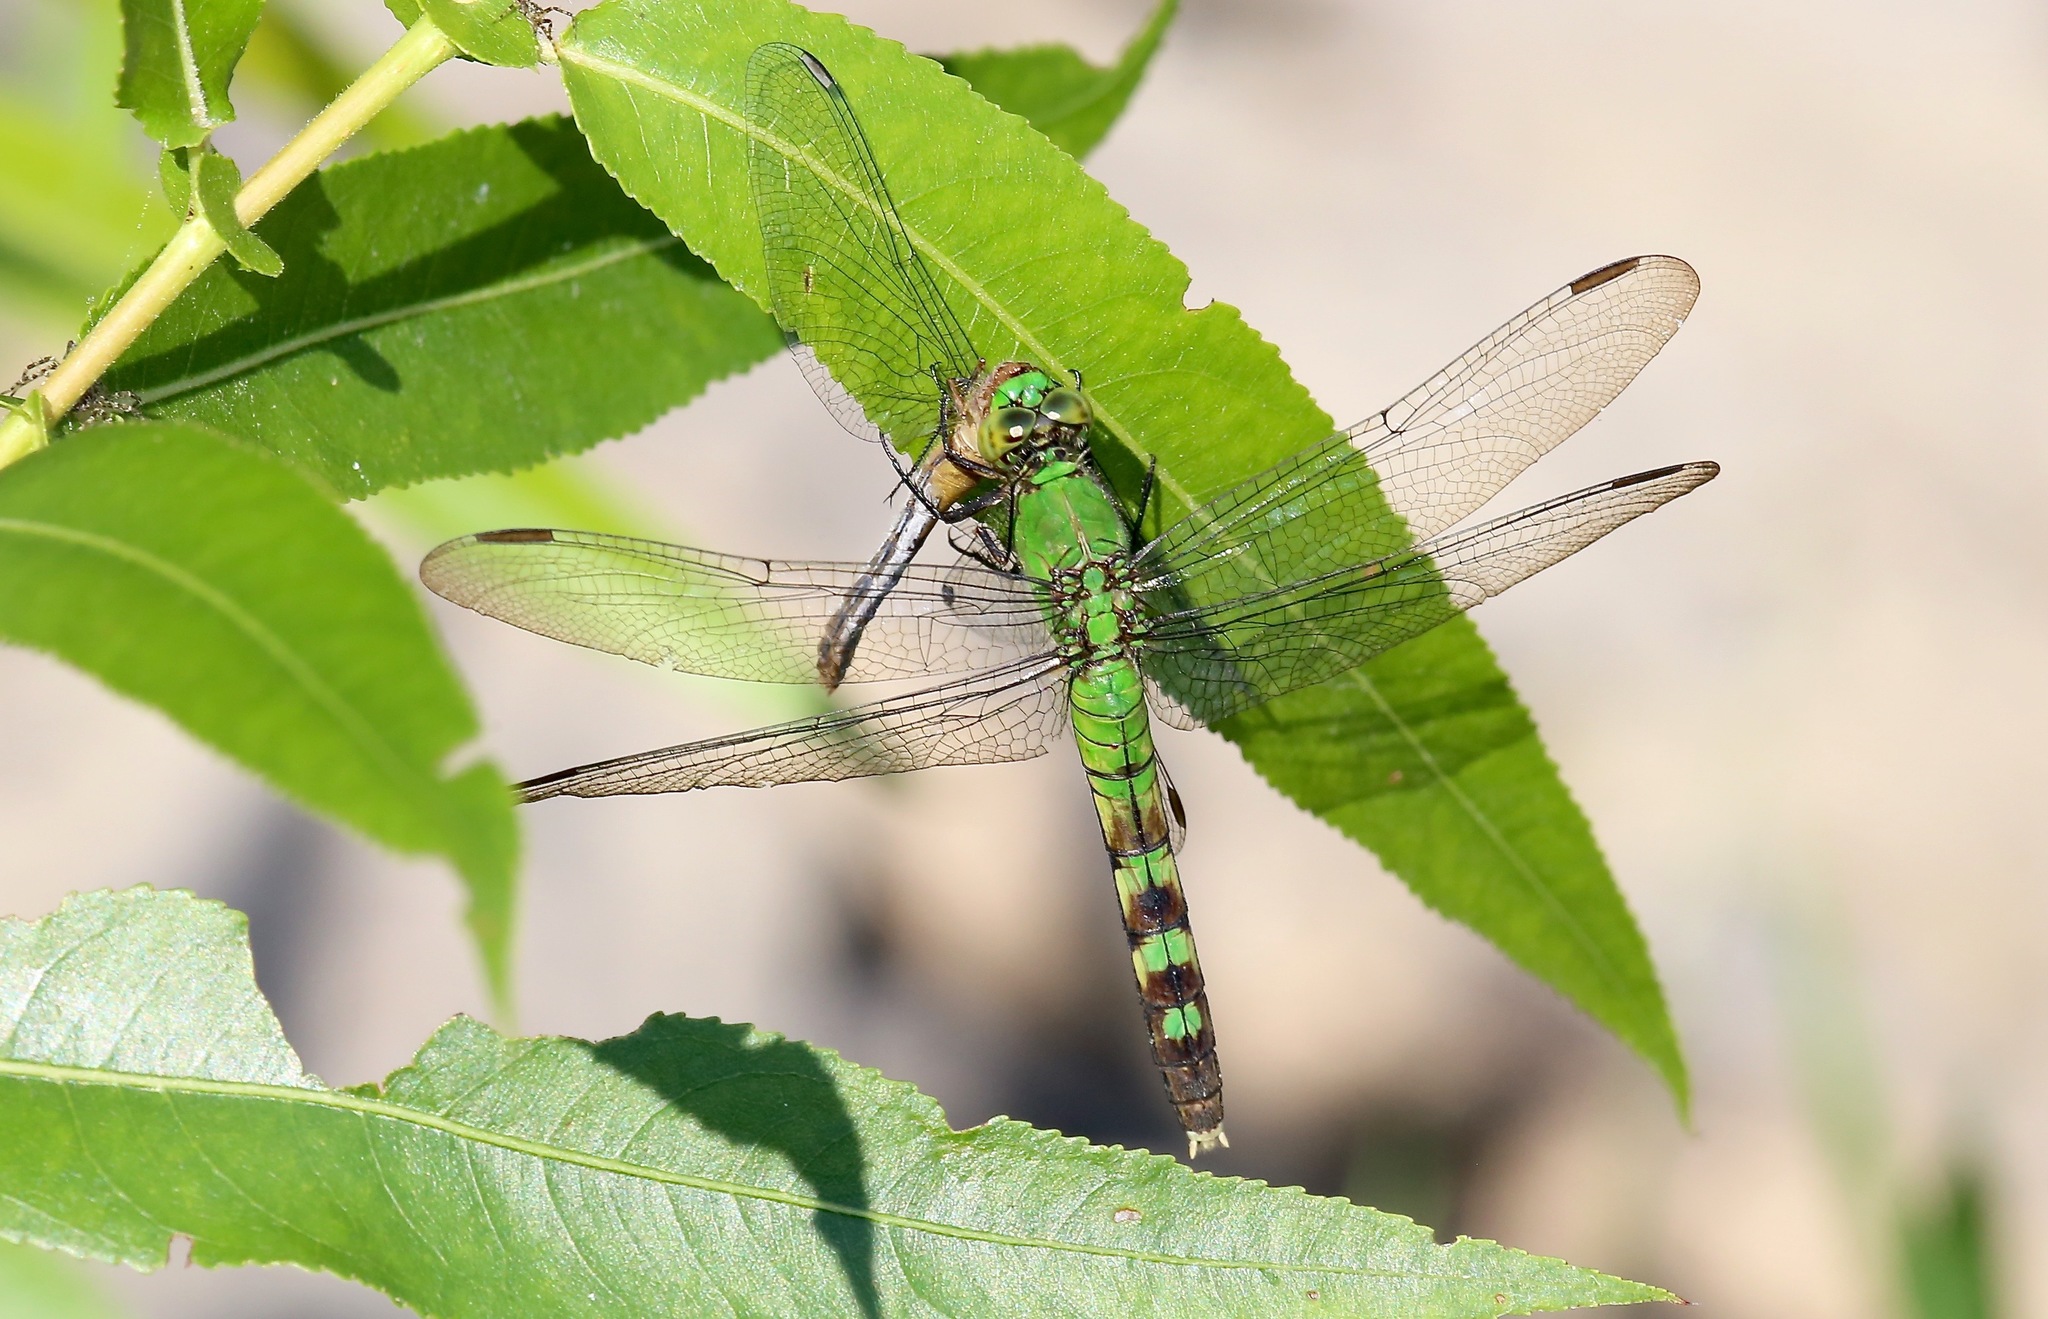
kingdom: Animalia
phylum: Arthropoda
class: Insecta
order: Odonata
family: Libellulidae
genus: Erythemis
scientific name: Erythemis simplicicollis
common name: Eastern pondhawk
